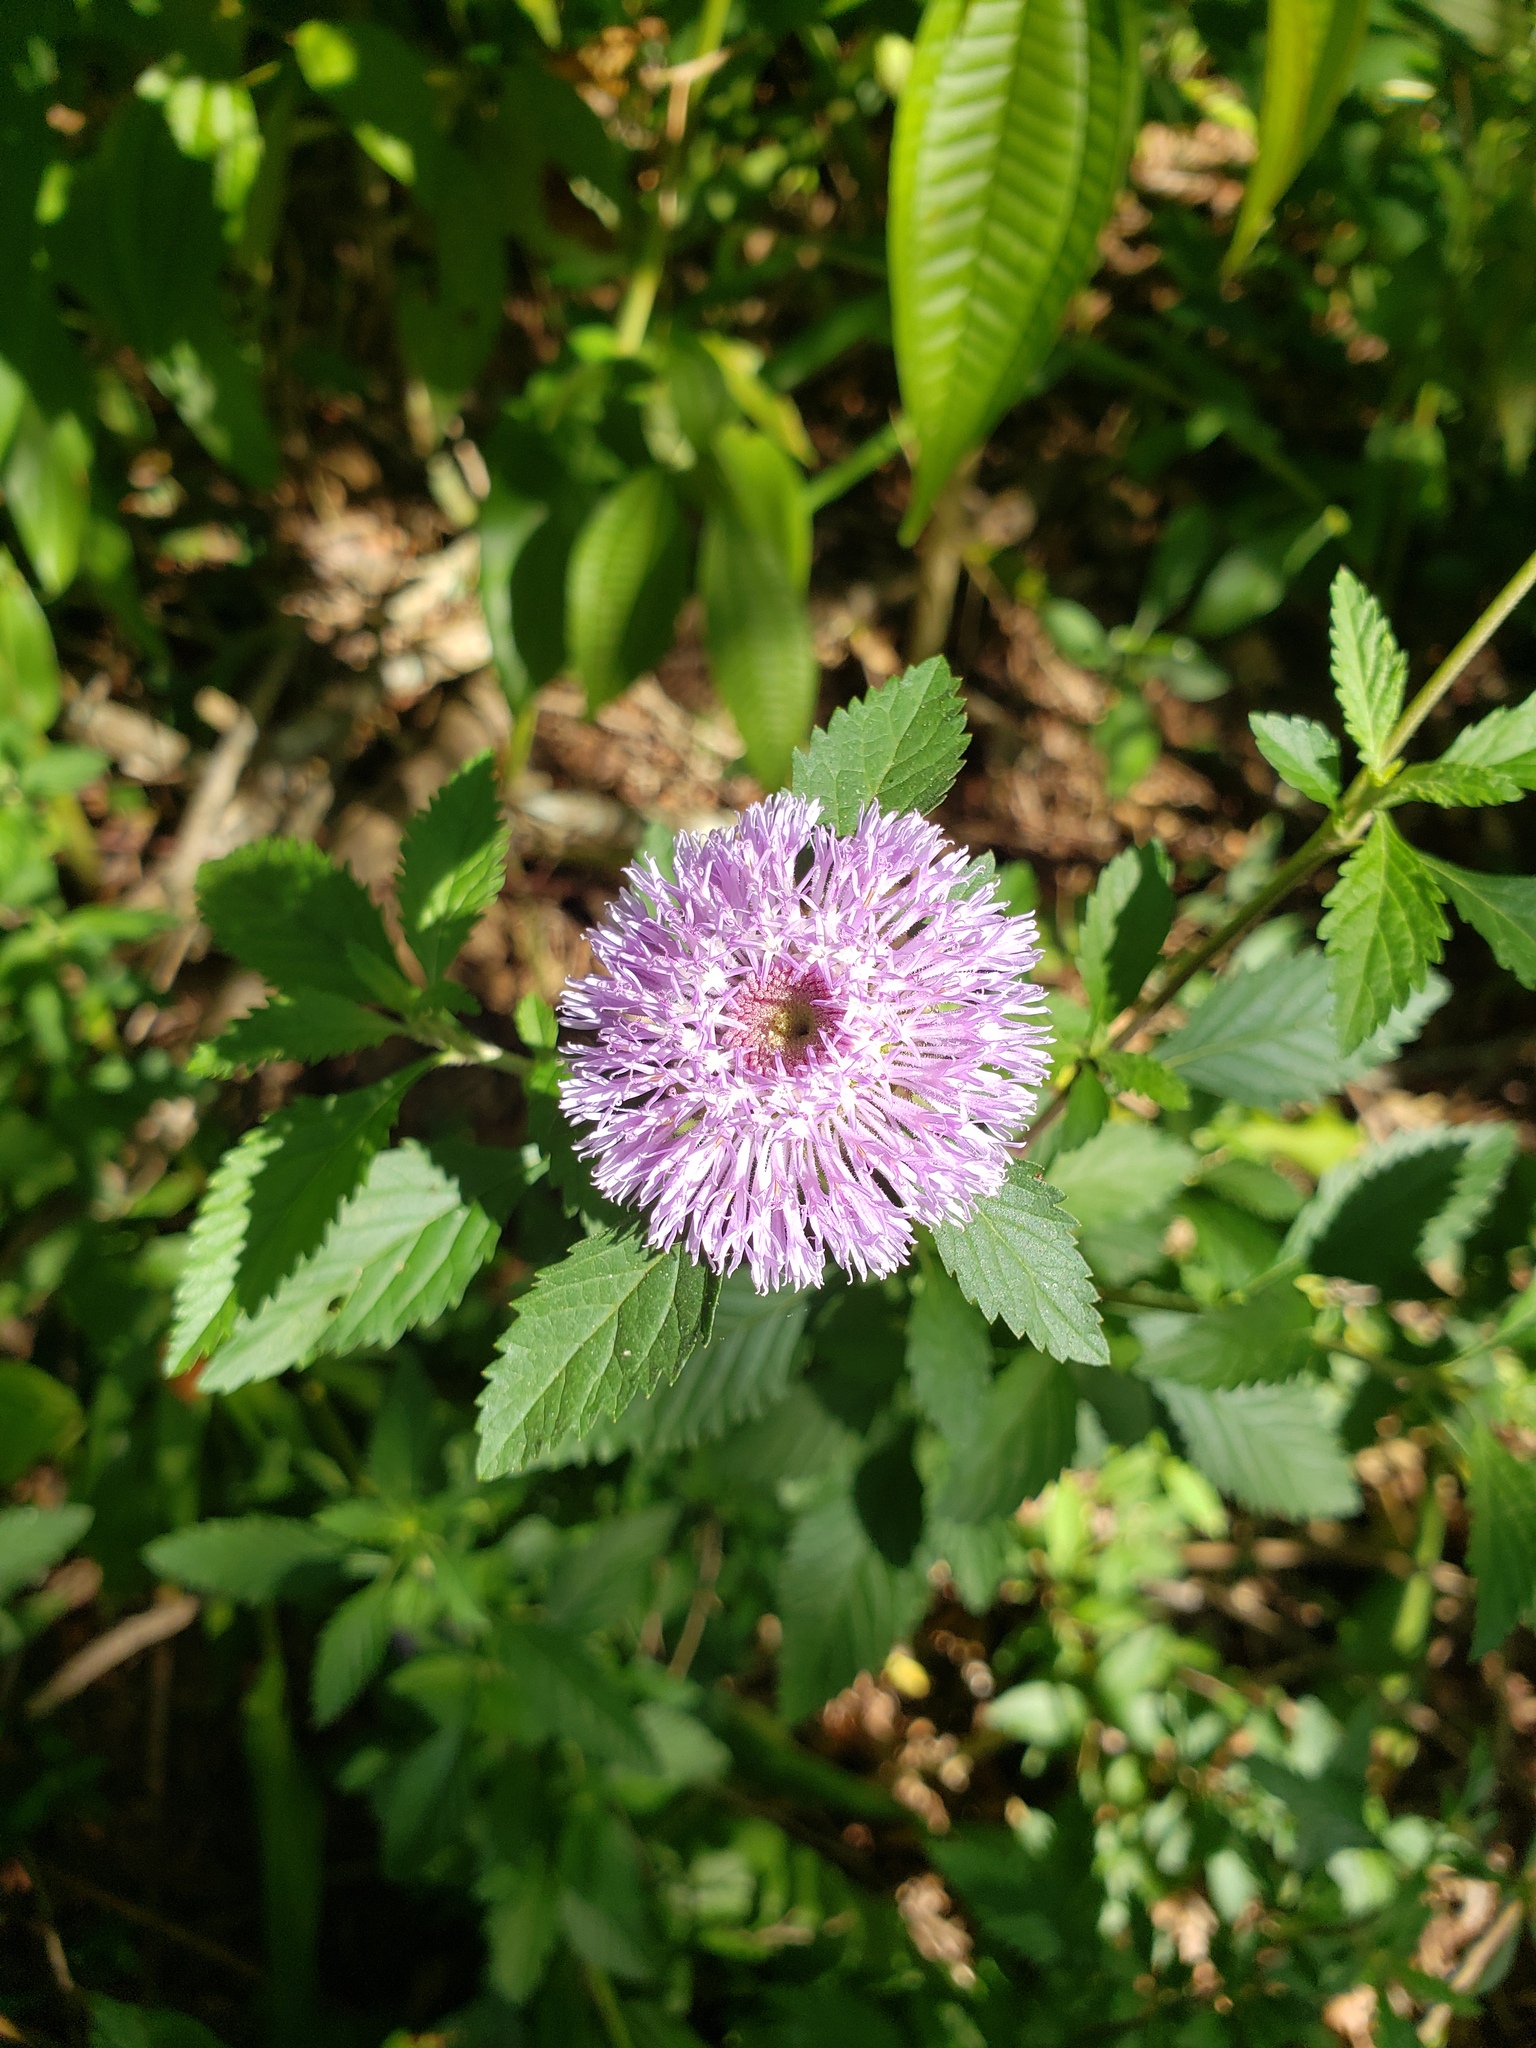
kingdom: Plantae
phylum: Tracheophyta
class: Magnoliopsida
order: Asterales
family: Asteraceae
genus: Centratherum
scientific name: Centratherum punctatum
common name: Larkdaisy
